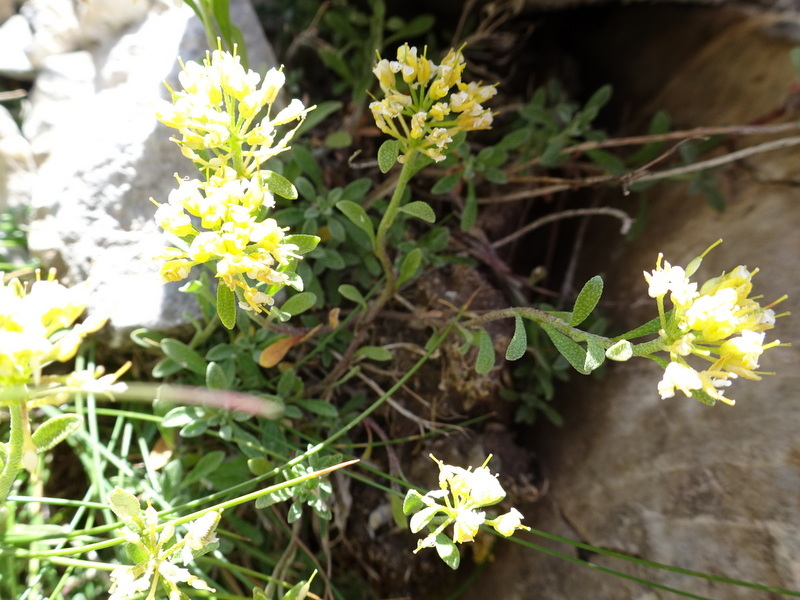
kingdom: Plantae
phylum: Tracheophyta
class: Magnoliopsida
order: Brassicales
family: Brassicaceae
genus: Odontarrhena
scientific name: Odontarrhena alpestris
